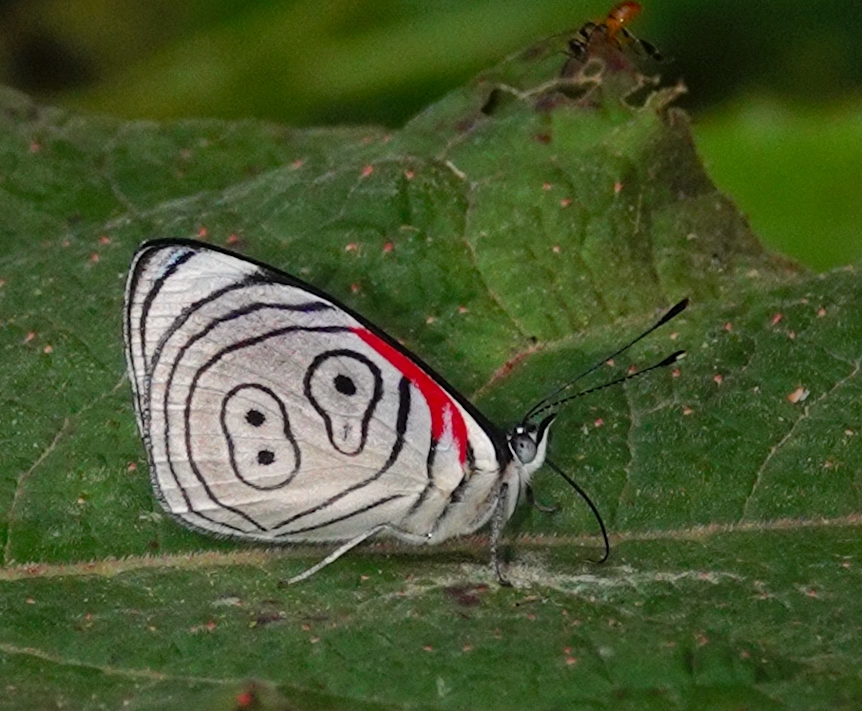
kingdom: Animalia
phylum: Arthropoda
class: Insecta
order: Lepidoptera
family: Nymphalidae
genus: Diaethria
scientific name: Diaethria euclides
